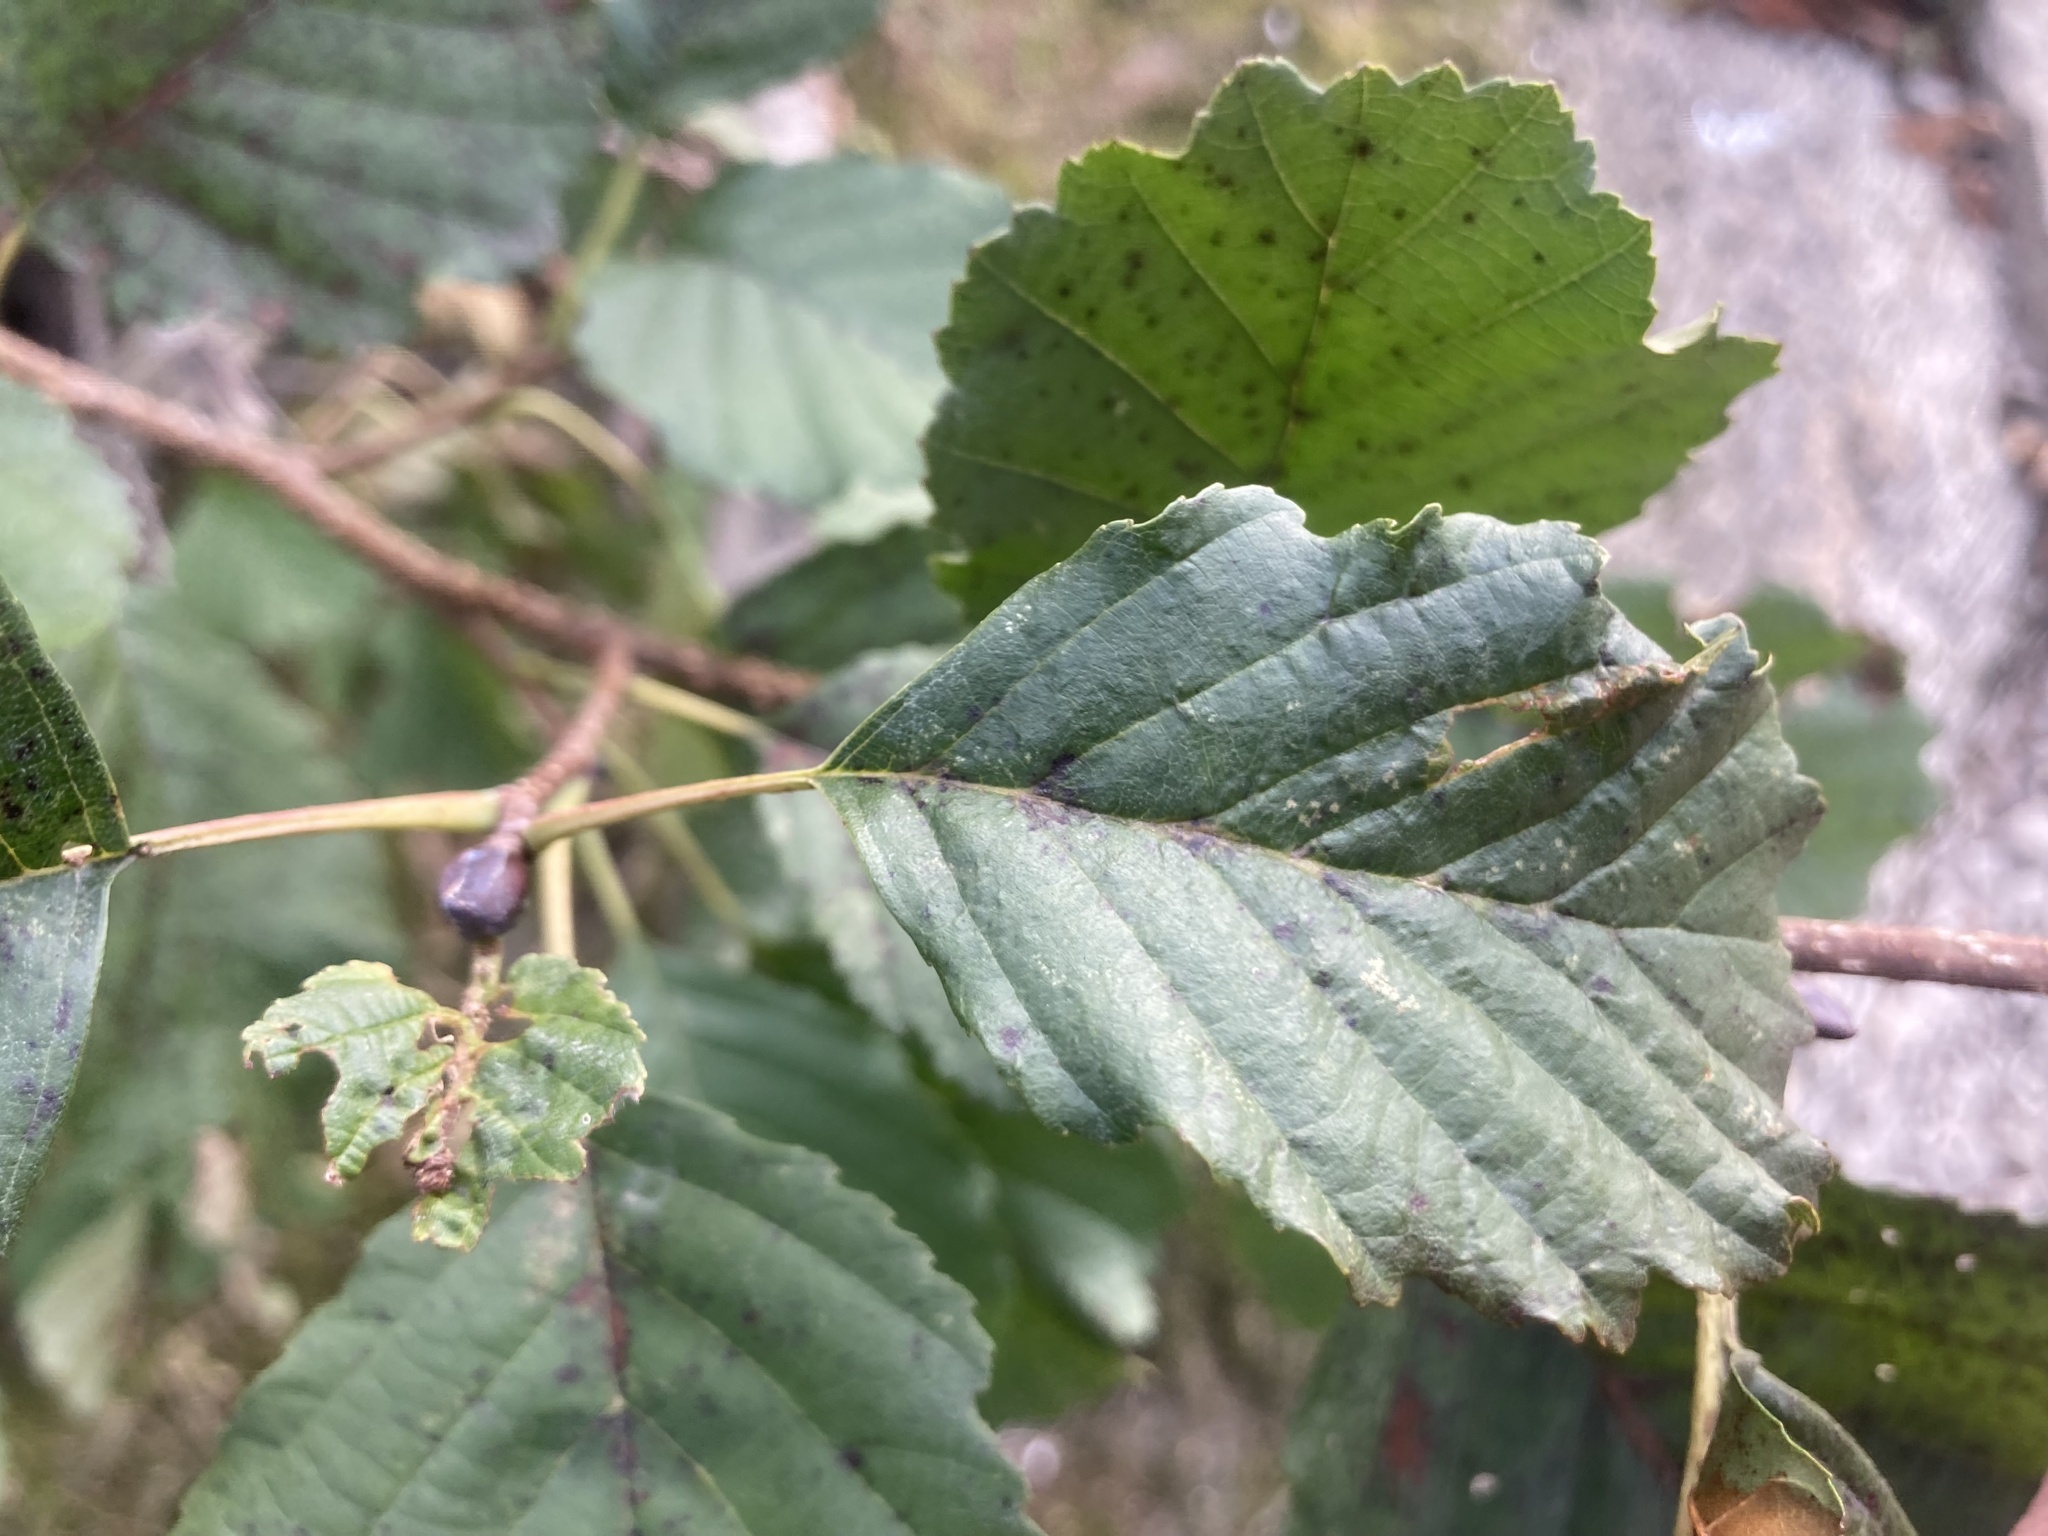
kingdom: Plantae
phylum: Tracheophyta
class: Magnoliopsida
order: Fagales
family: Betulaceae
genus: Alnus
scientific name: Alnus glutinosa
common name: Black alder
